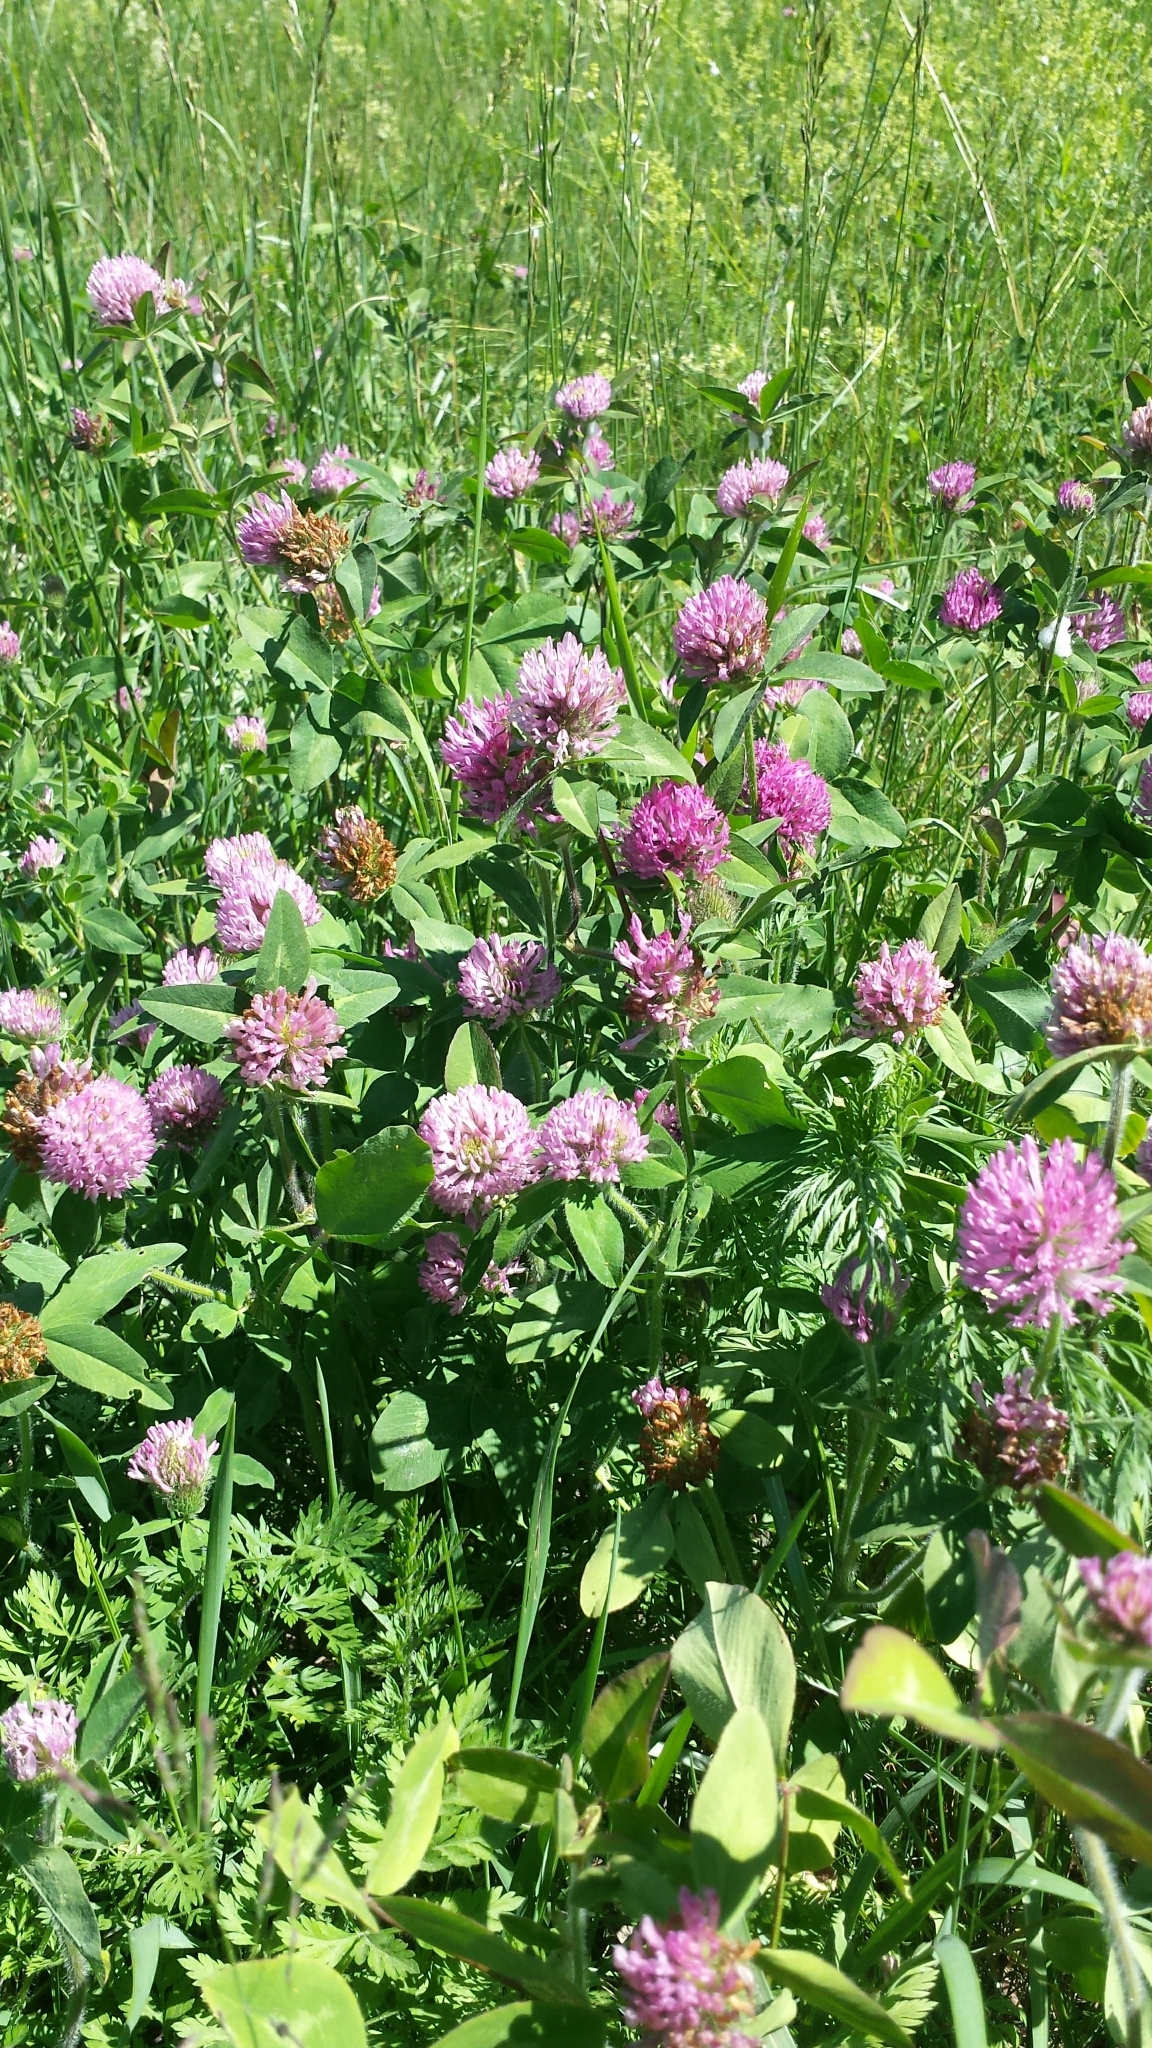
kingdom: Plantae
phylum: Tracheophyta
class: Magnoliopsida
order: Fabales
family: Fabaceae
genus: Trifolium
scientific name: Trifolium pratense
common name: Red clover
